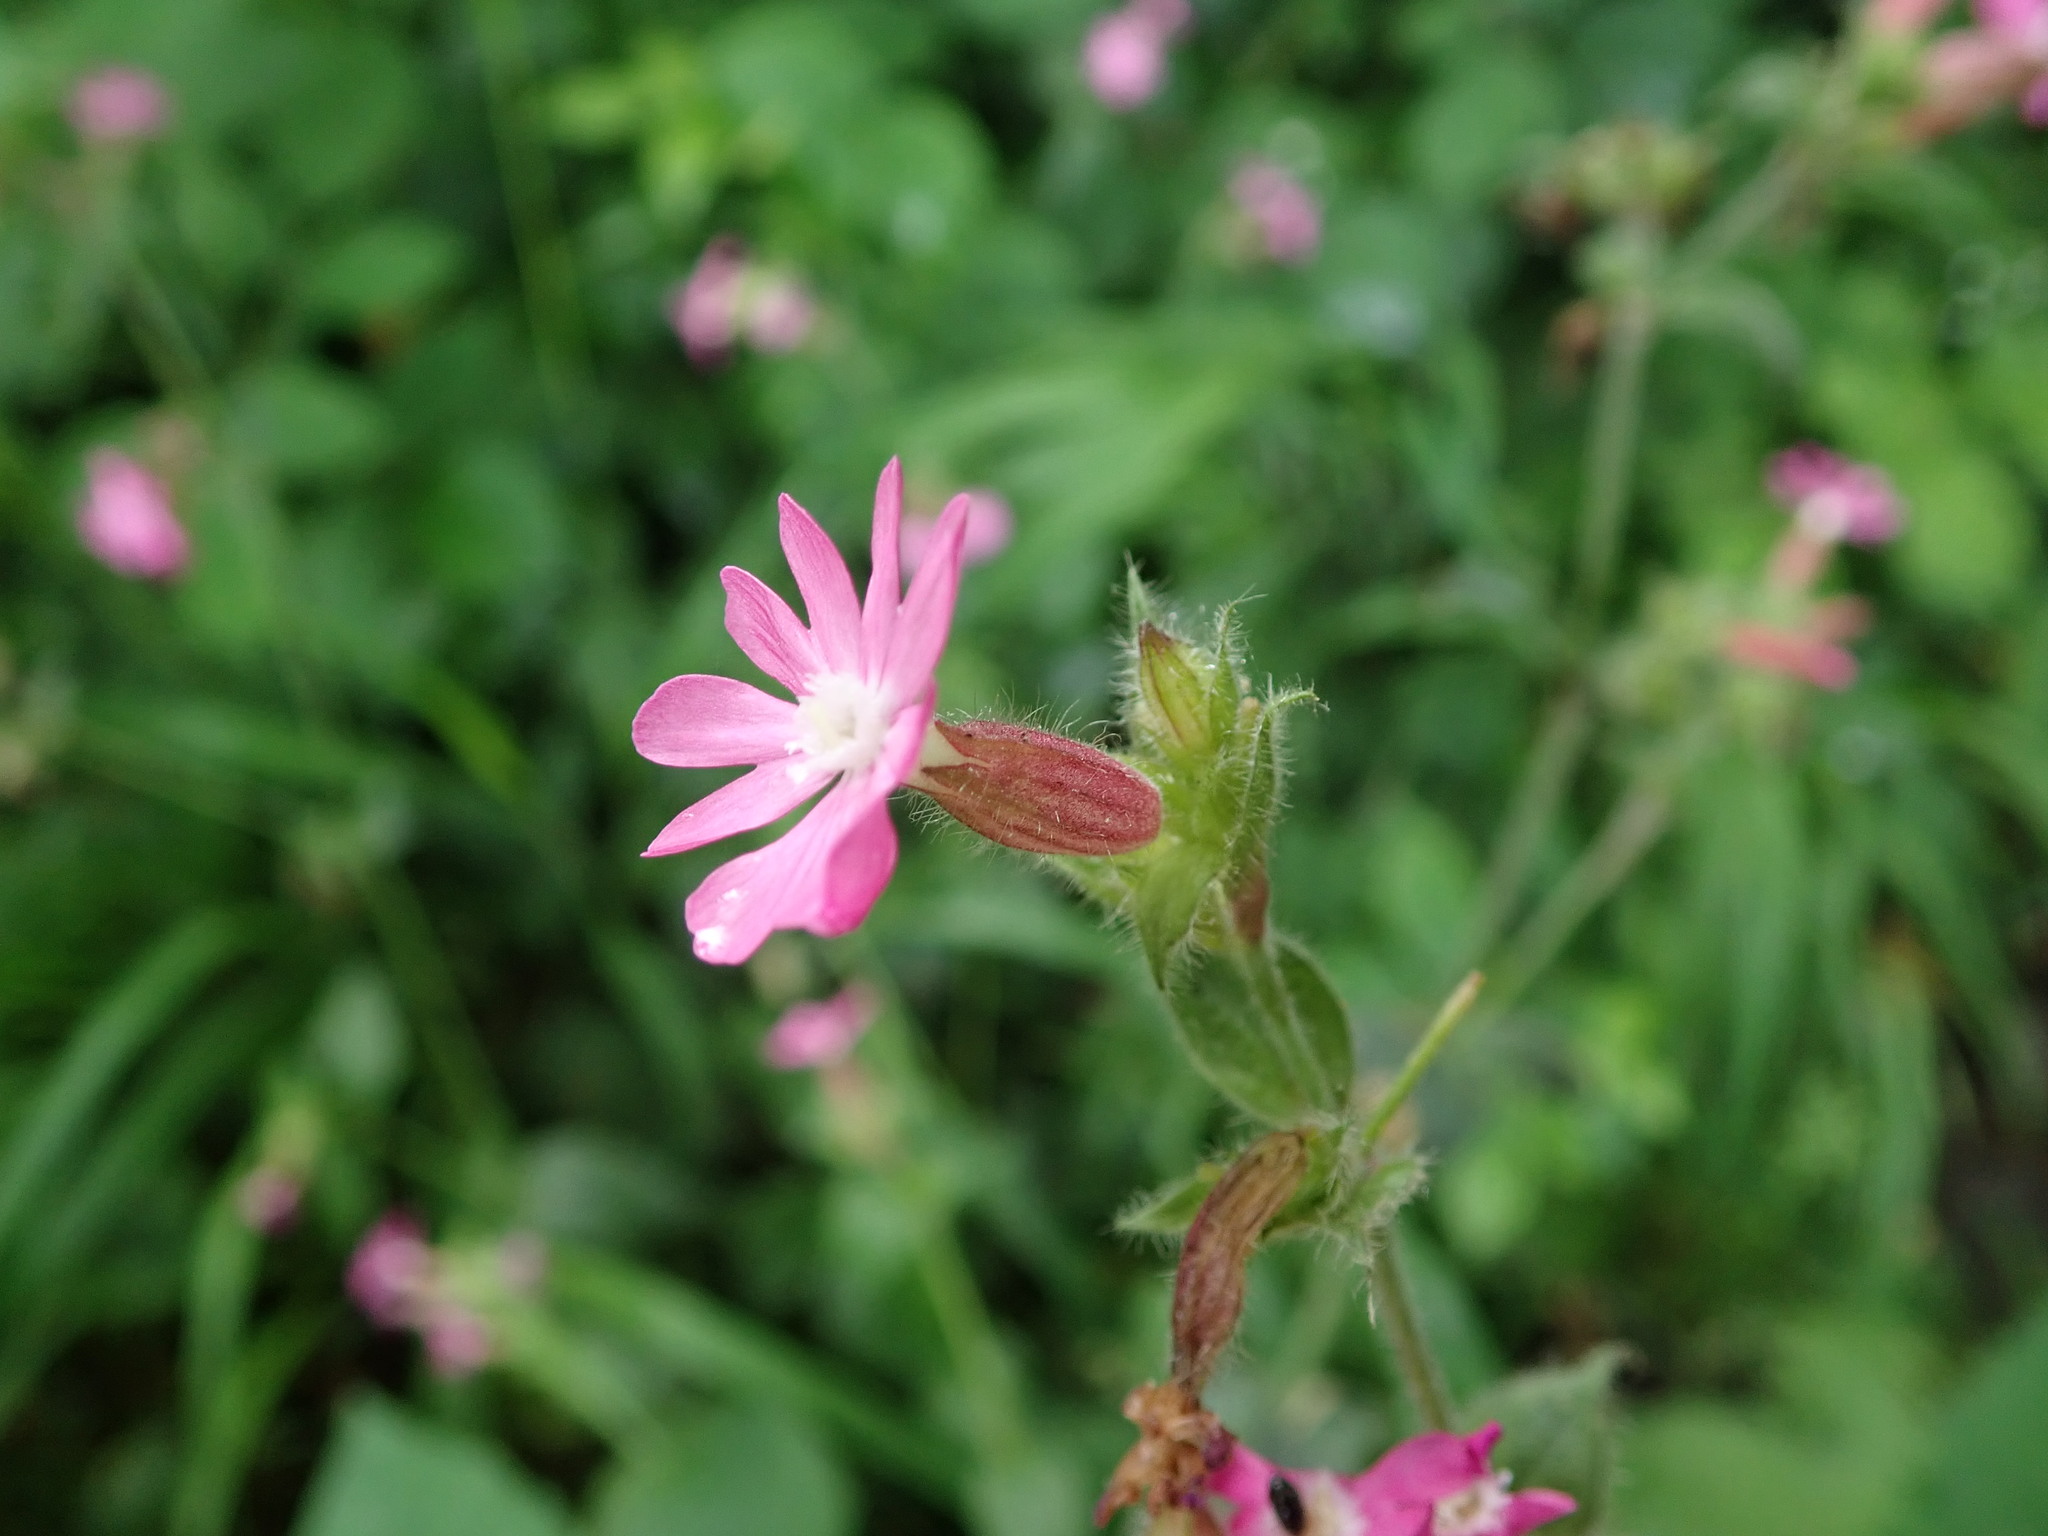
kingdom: Plantae
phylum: Tracheophyta
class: Magnoliopsida
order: Caryophyllales
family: Caryophyllaceae
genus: Silene
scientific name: Silene dioica
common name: Red campion
